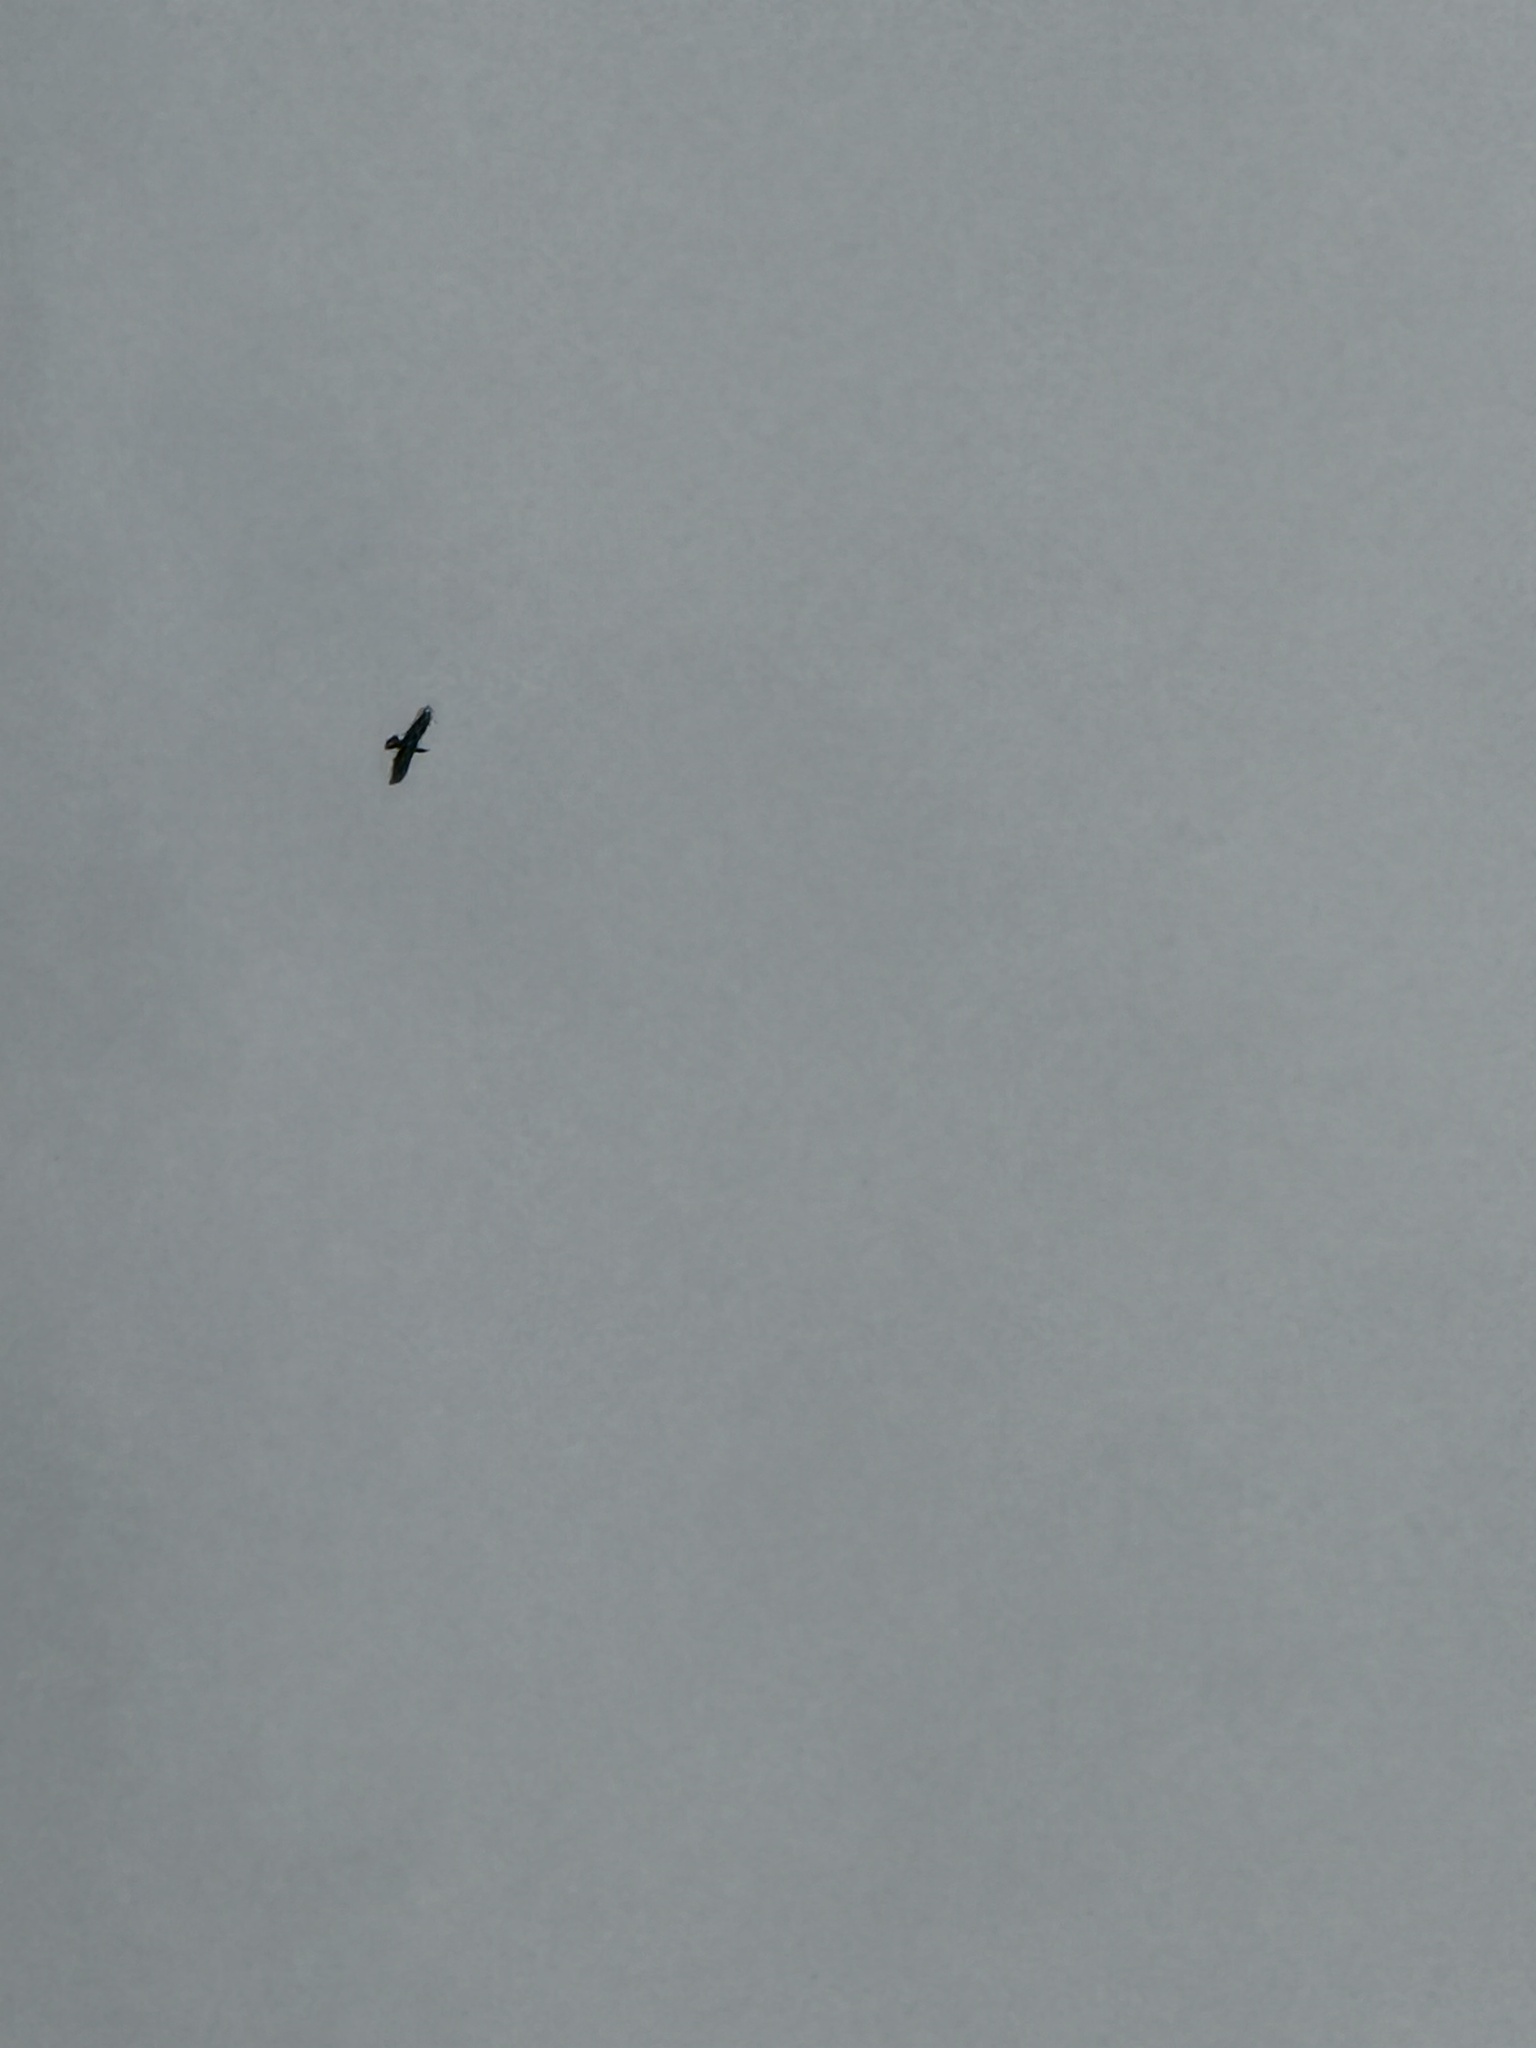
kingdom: Animalia
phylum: Chordata
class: Aves
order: Accipitriformes
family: Accipitridae
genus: Buteo
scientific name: Buteo jamaicensis
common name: Red-tailed hawk
